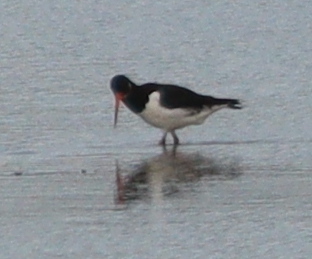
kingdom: Animalia
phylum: Chordata
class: Aves
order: Charadriiformes
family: Haematopodidae
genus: Haematopus
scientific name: Haematopus ostralegus
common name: Eurasian oystercatcher
